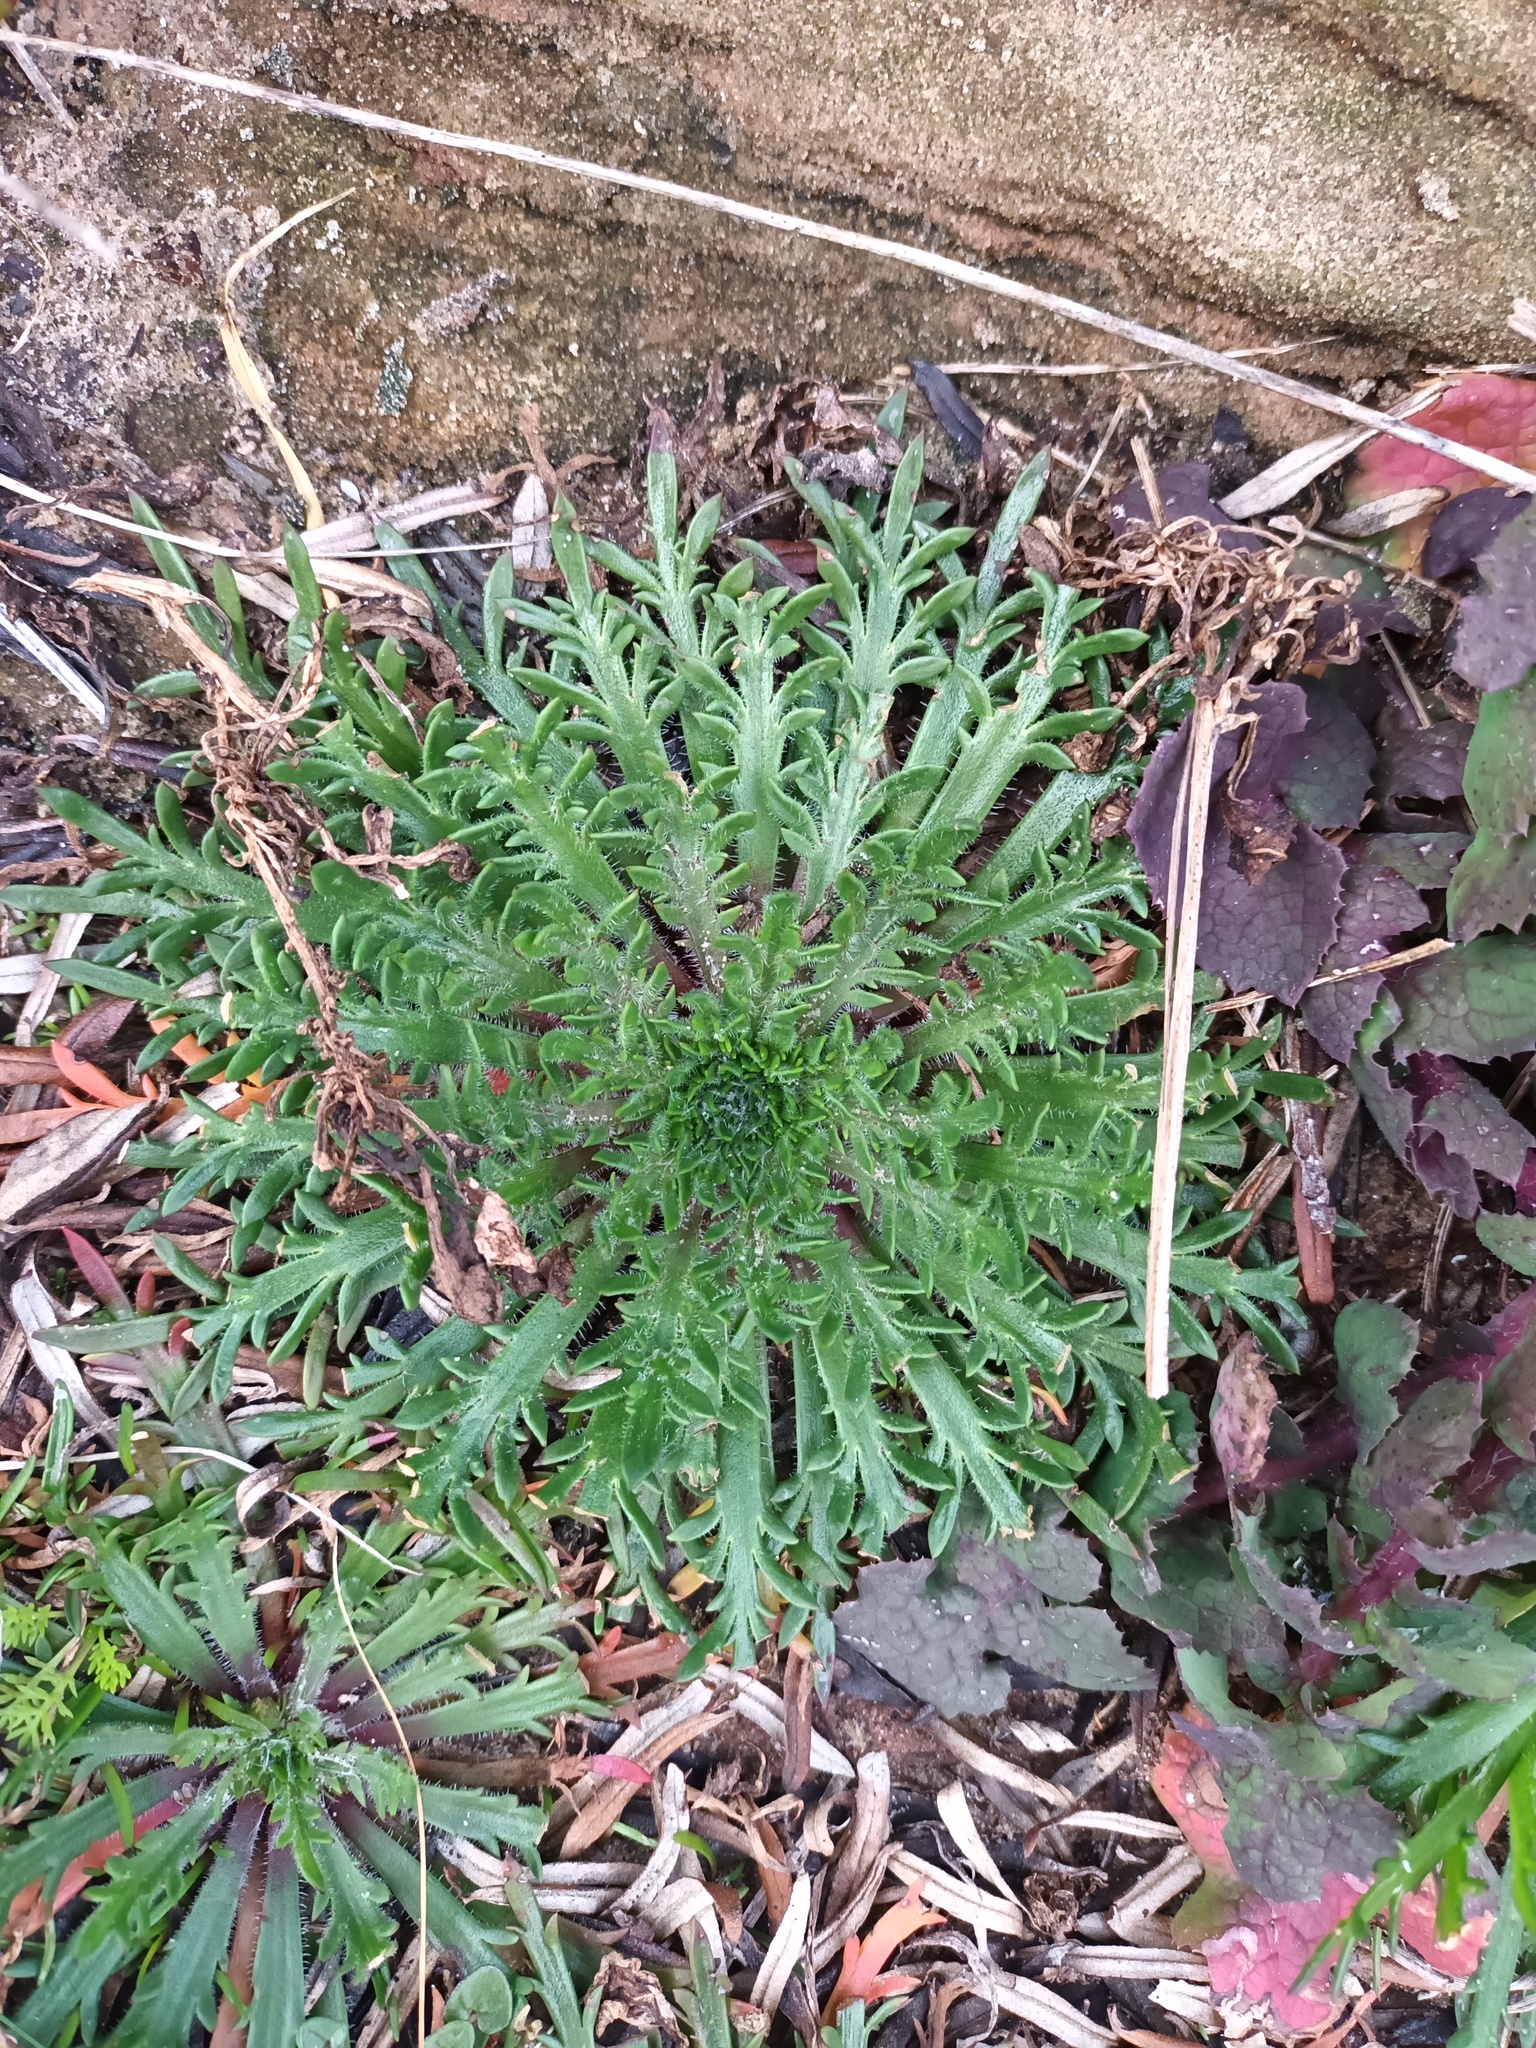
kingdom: Plantae
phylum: Tracheophyta
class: Magnoliopsida
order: Lamiales
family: Plantaginaceae
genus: Plantago
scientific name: Plantago coronopus
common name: Buck's-horn plantain
